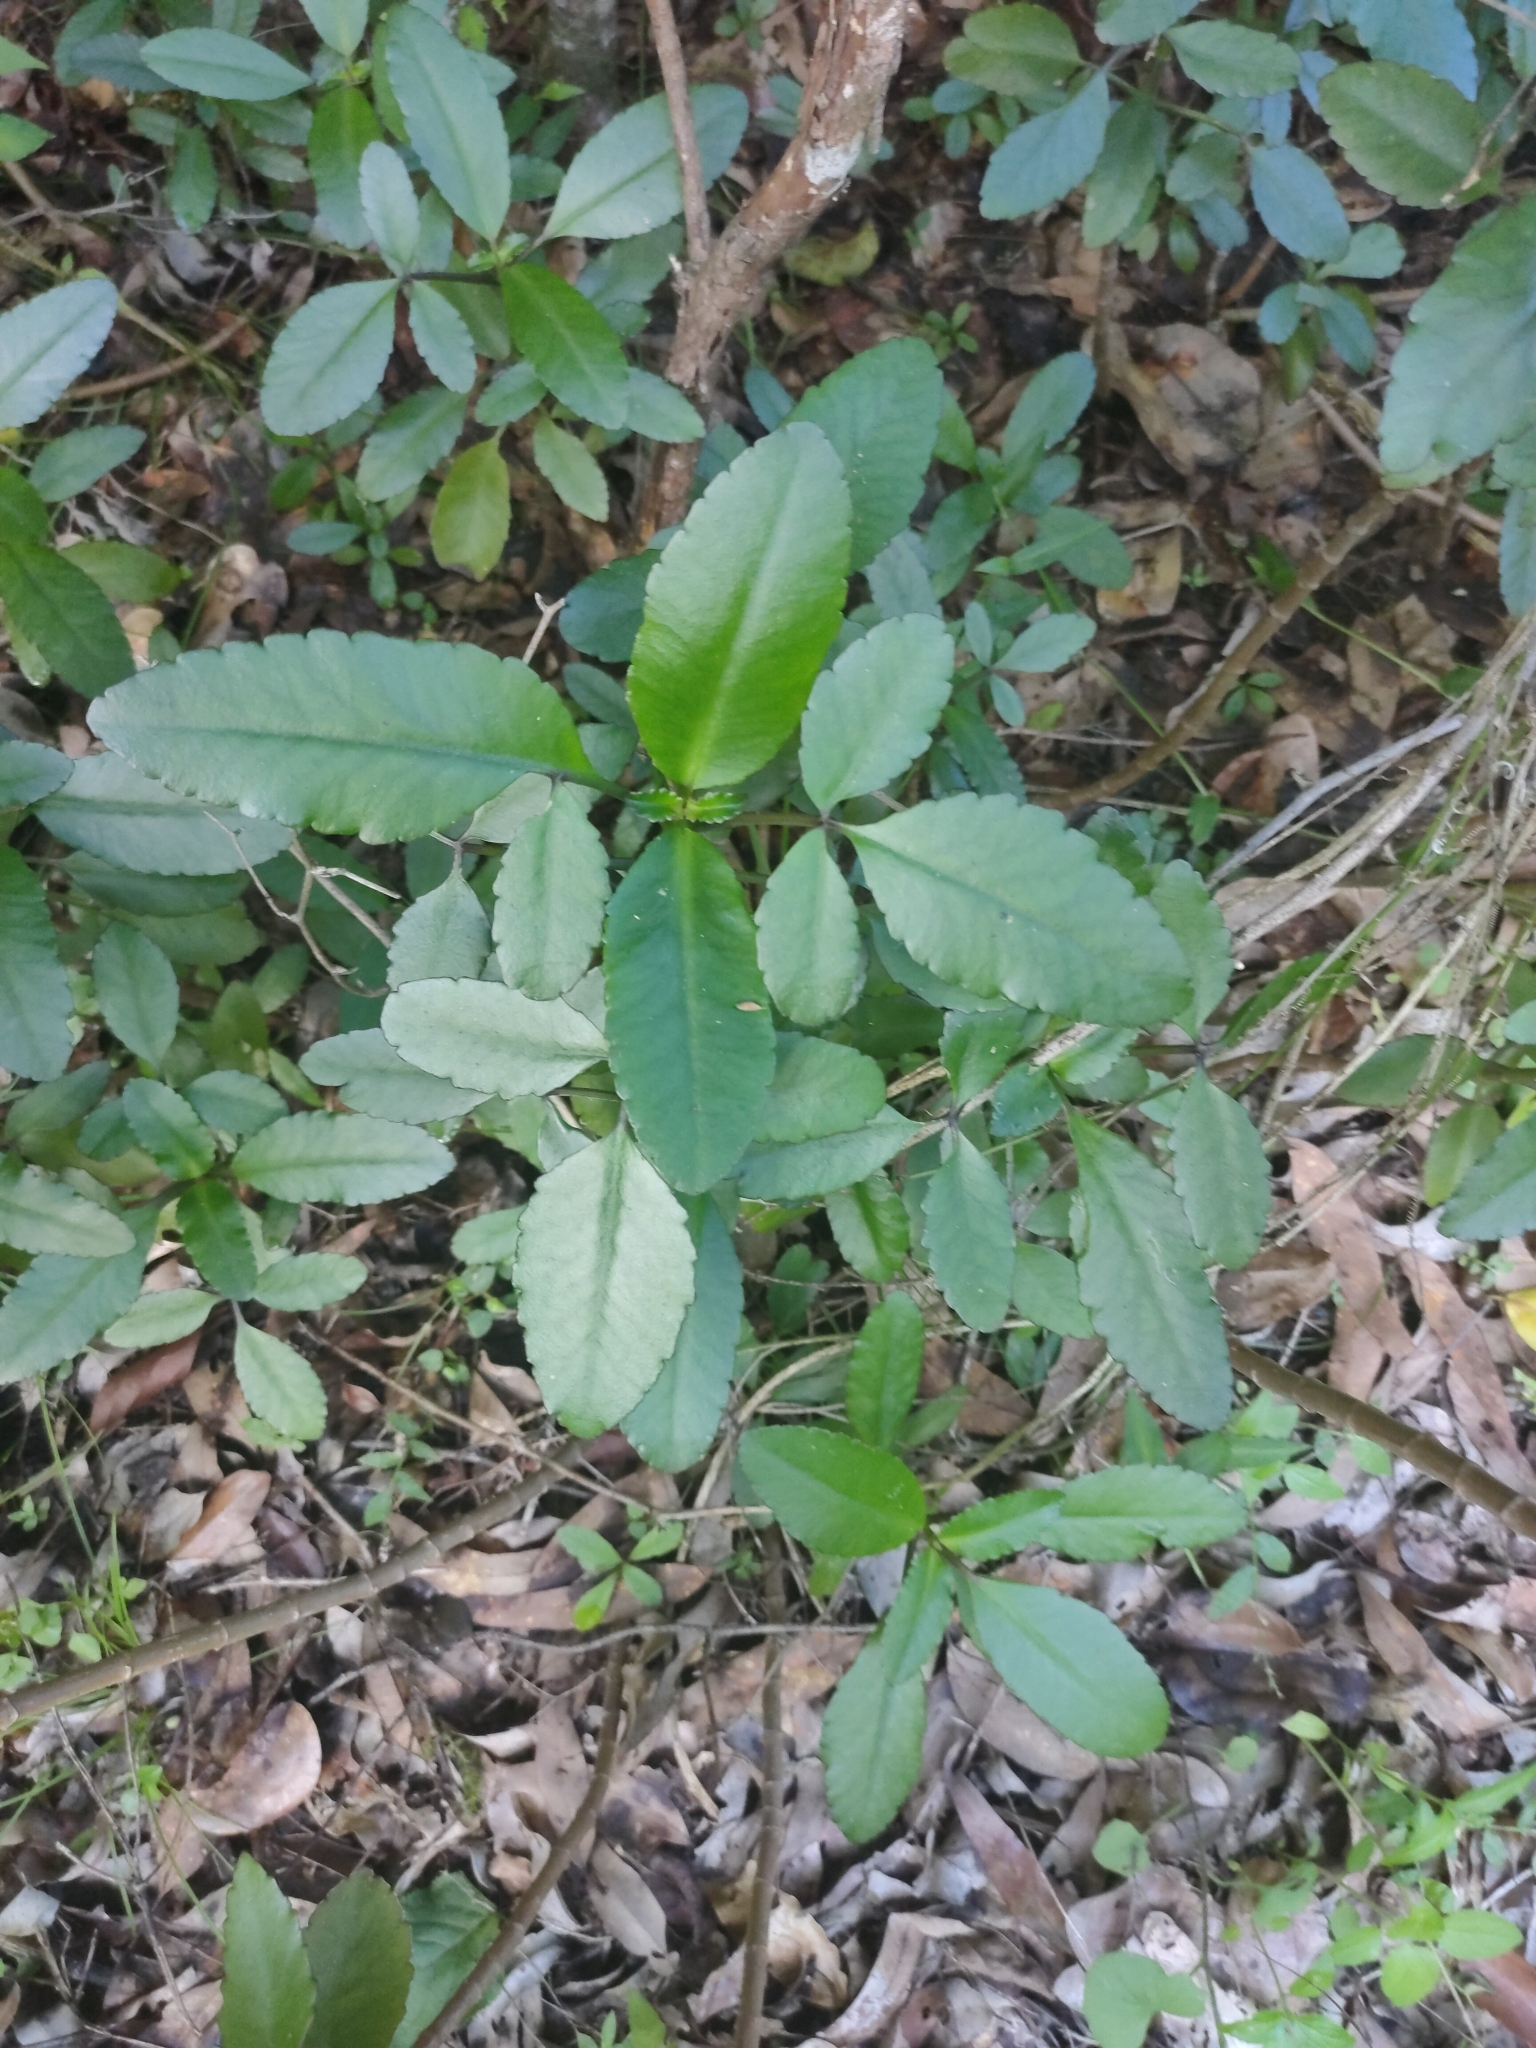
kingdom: Plantae
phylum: Tracheophyta
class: Magnoliopsida
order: Saxifragales
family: Crassulaceae
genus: Kalanchoe
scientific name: Kalanchoe pinnata
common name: Cathedral bells
